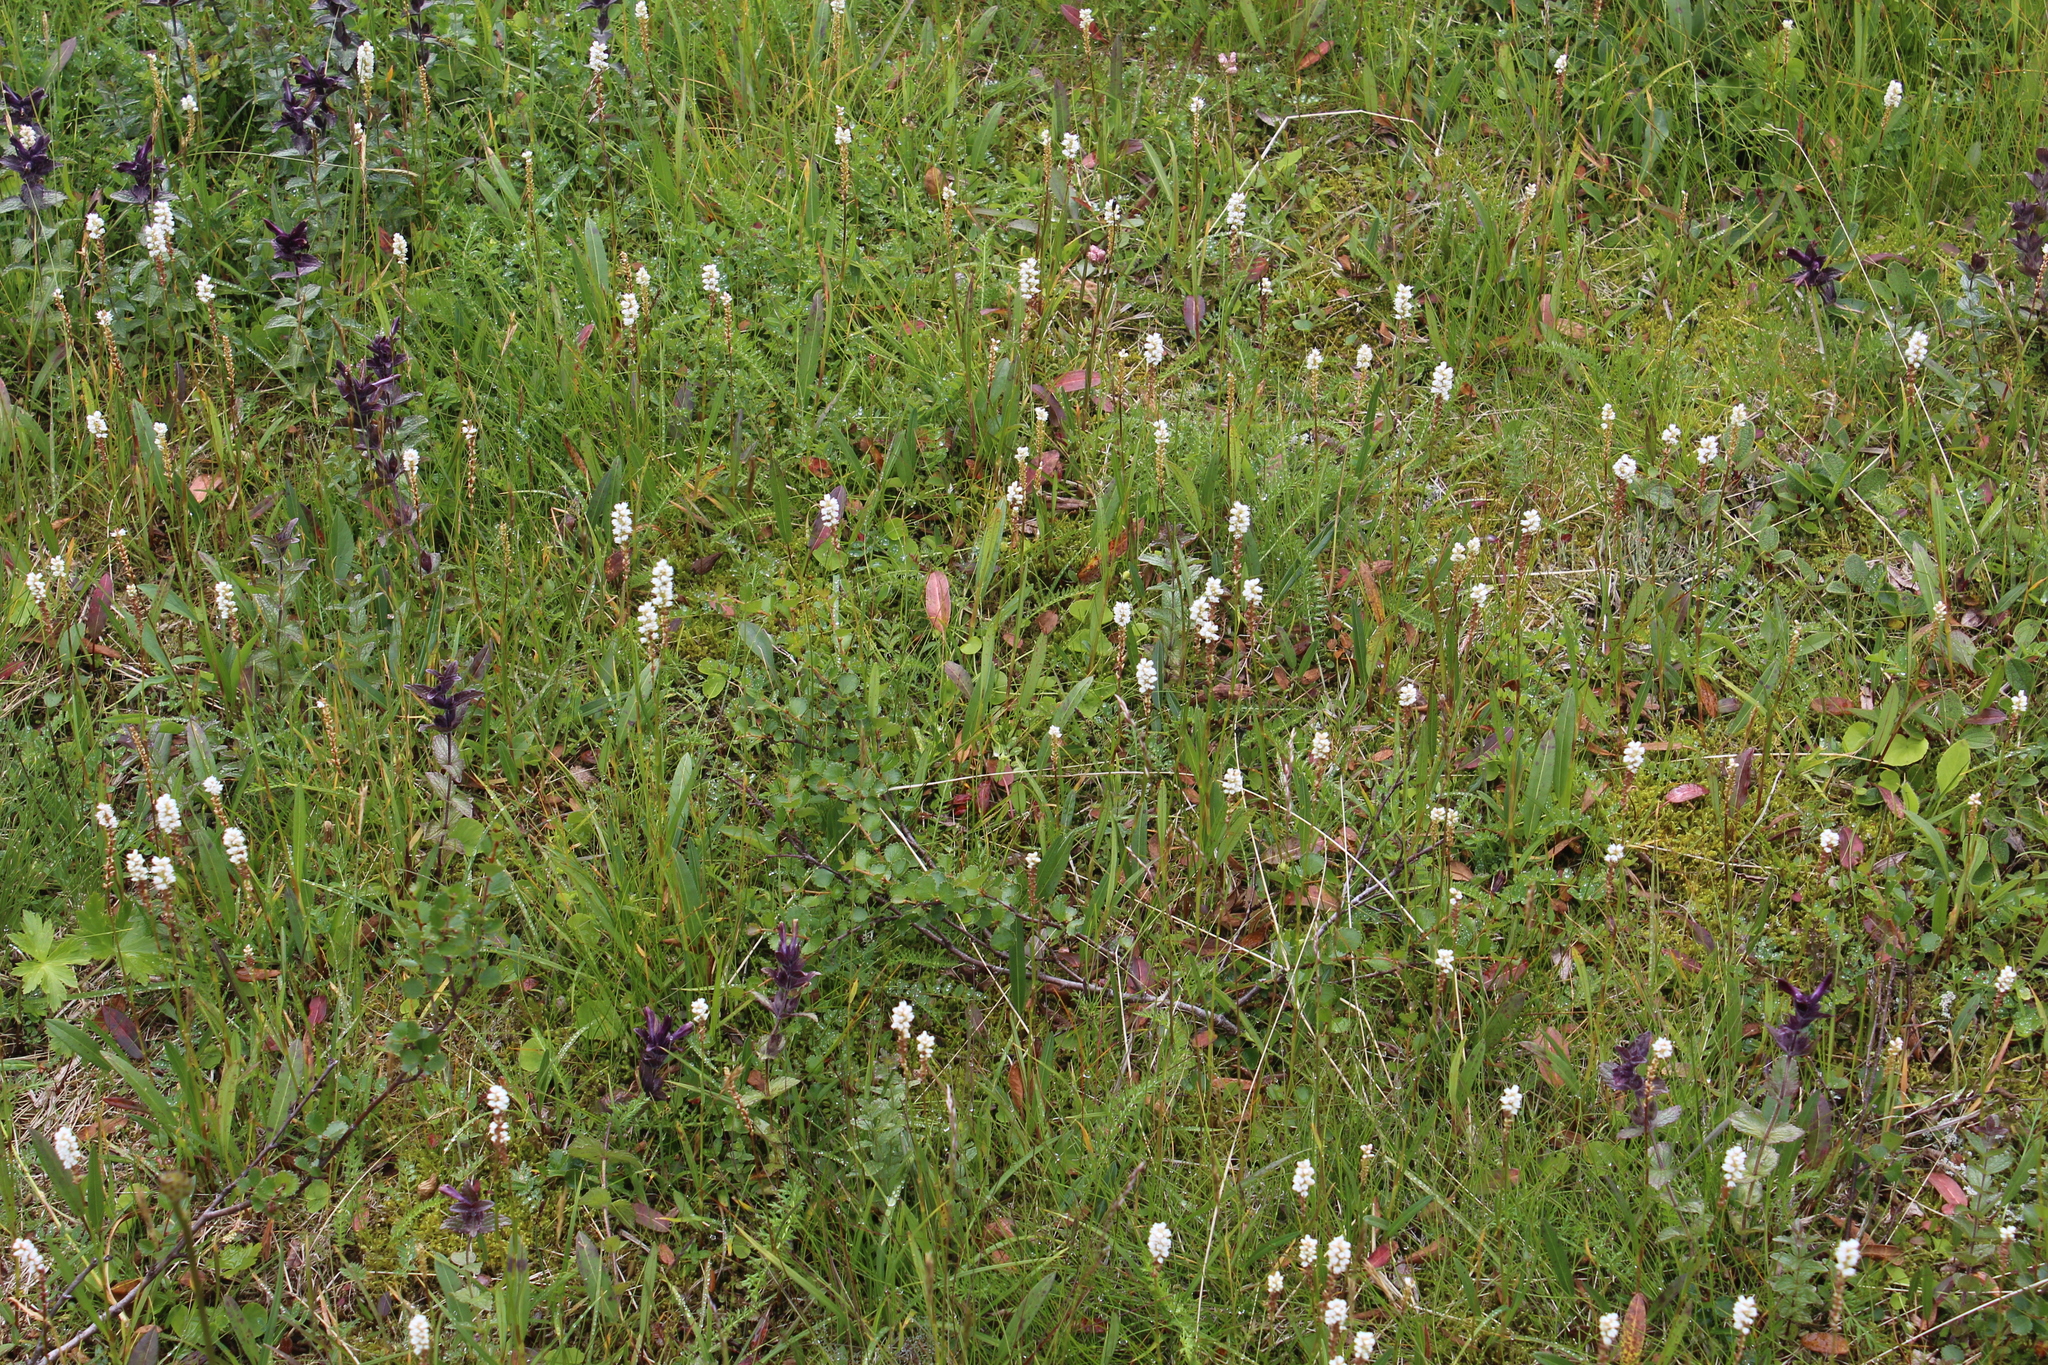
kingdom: Plantae
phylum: Tracheophyta
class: Magnoliopsida
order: Caryophyllales
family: Polygonaceae
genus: Bistorta
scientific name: Bistorta vivipara
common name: Alpine bistort
